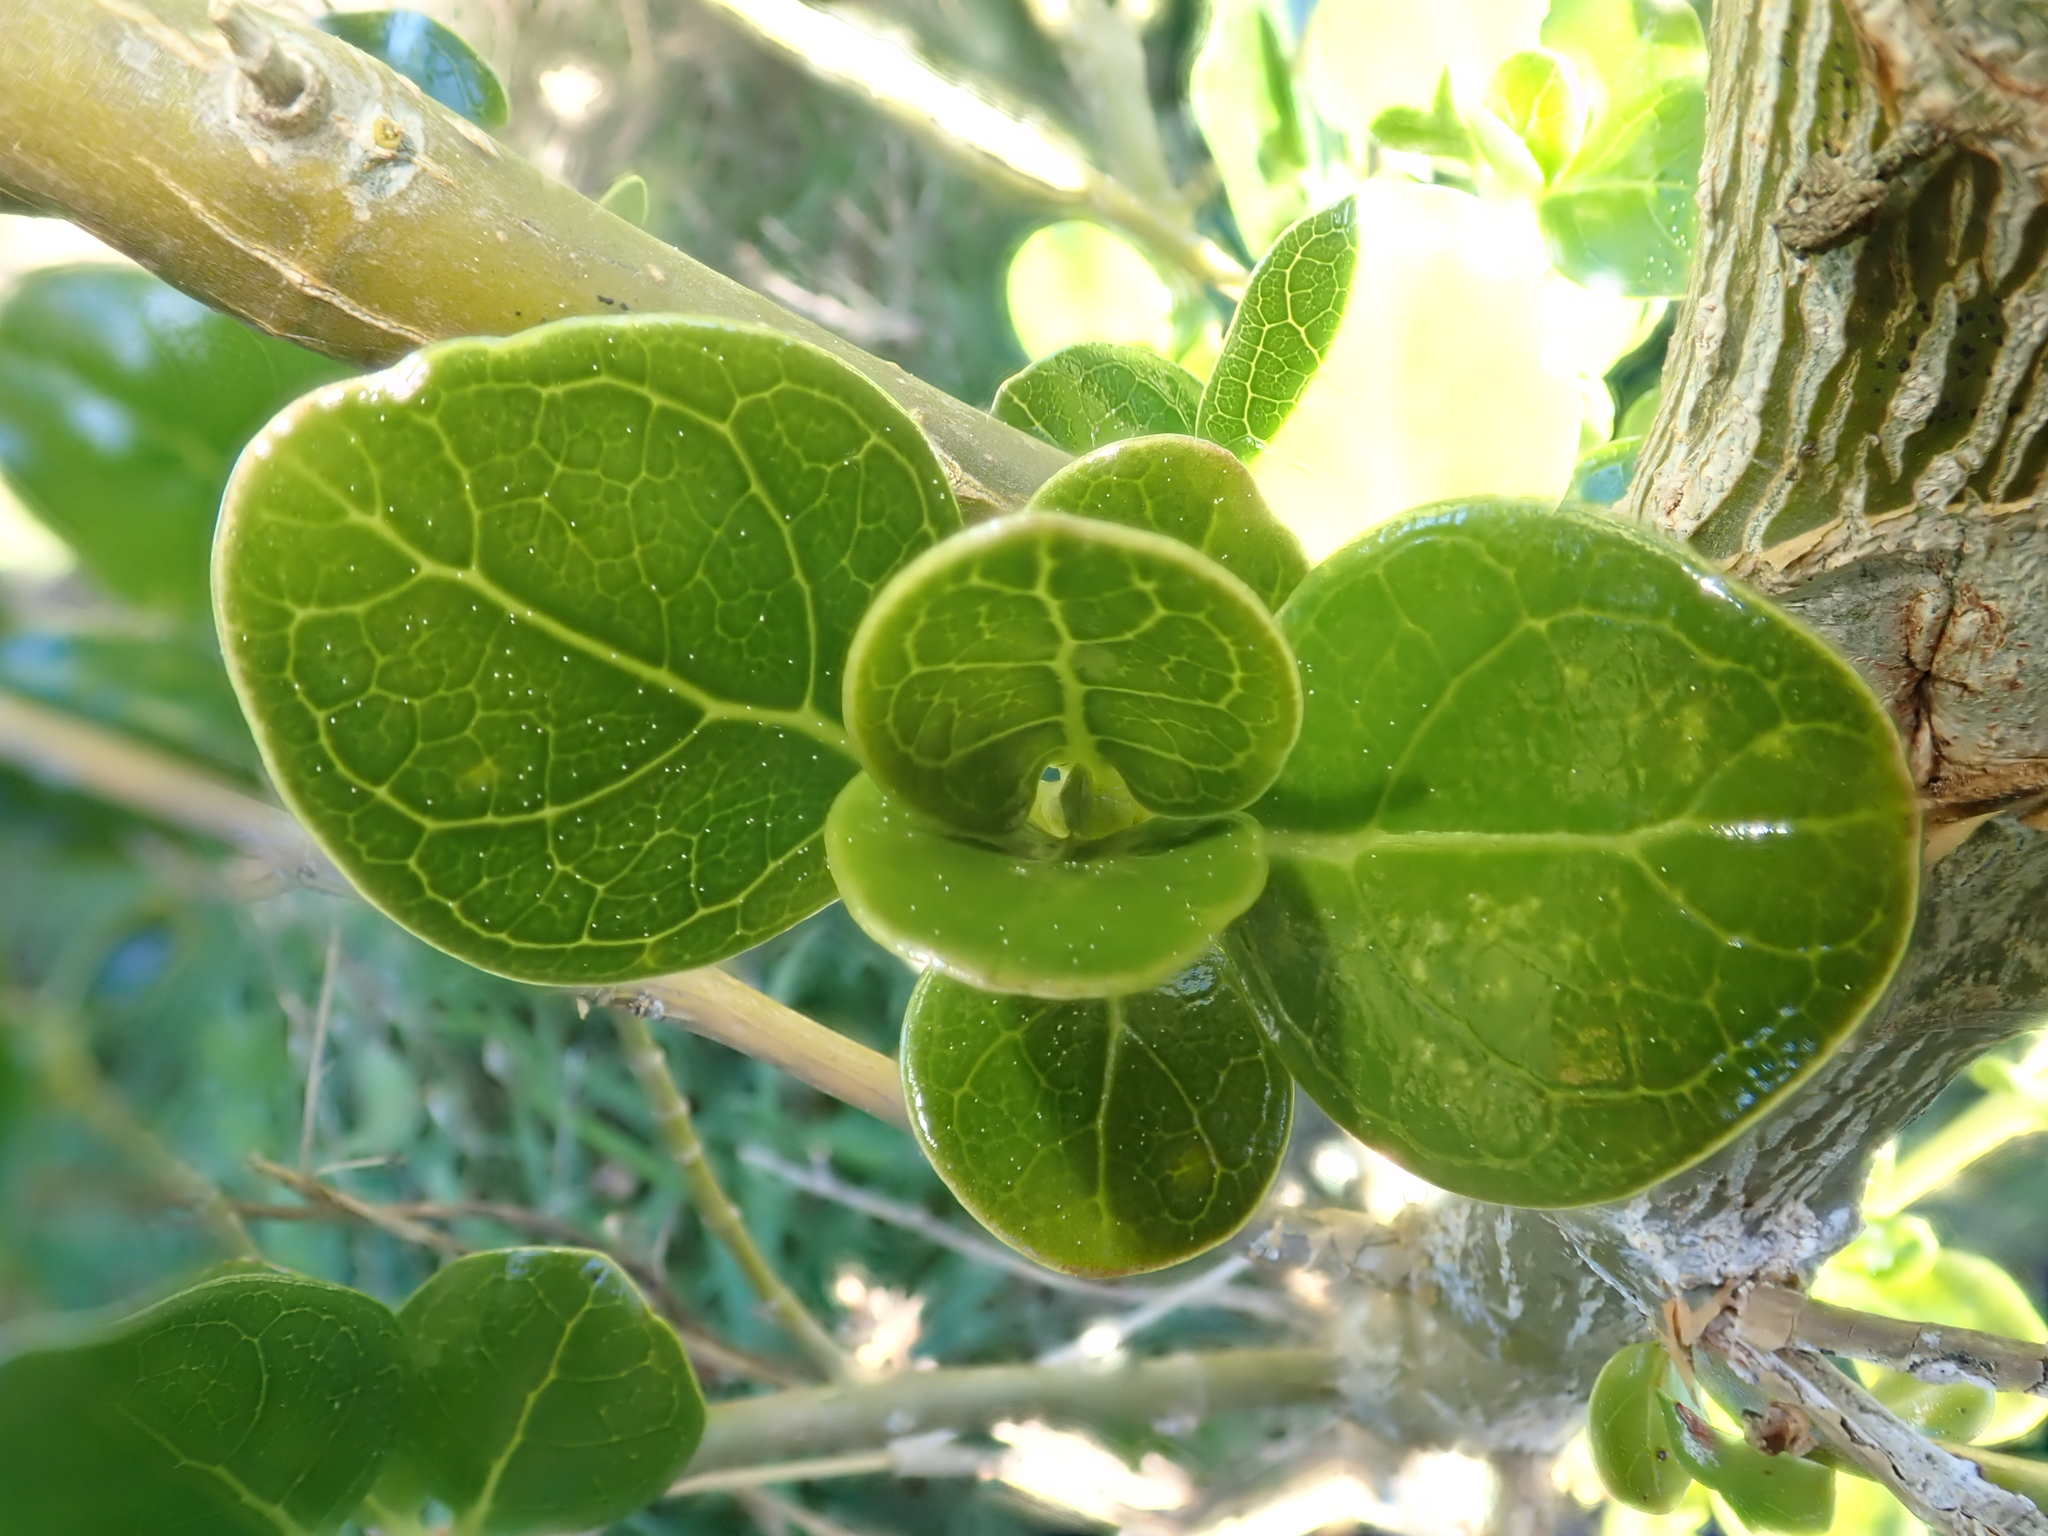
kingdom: Plantae
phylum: Tracheophyta
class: Magnoliopsida
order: Gentianales
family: Rubiaceae
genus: Coprosma
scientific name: Coprosma repens
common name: Tree bedstraw
